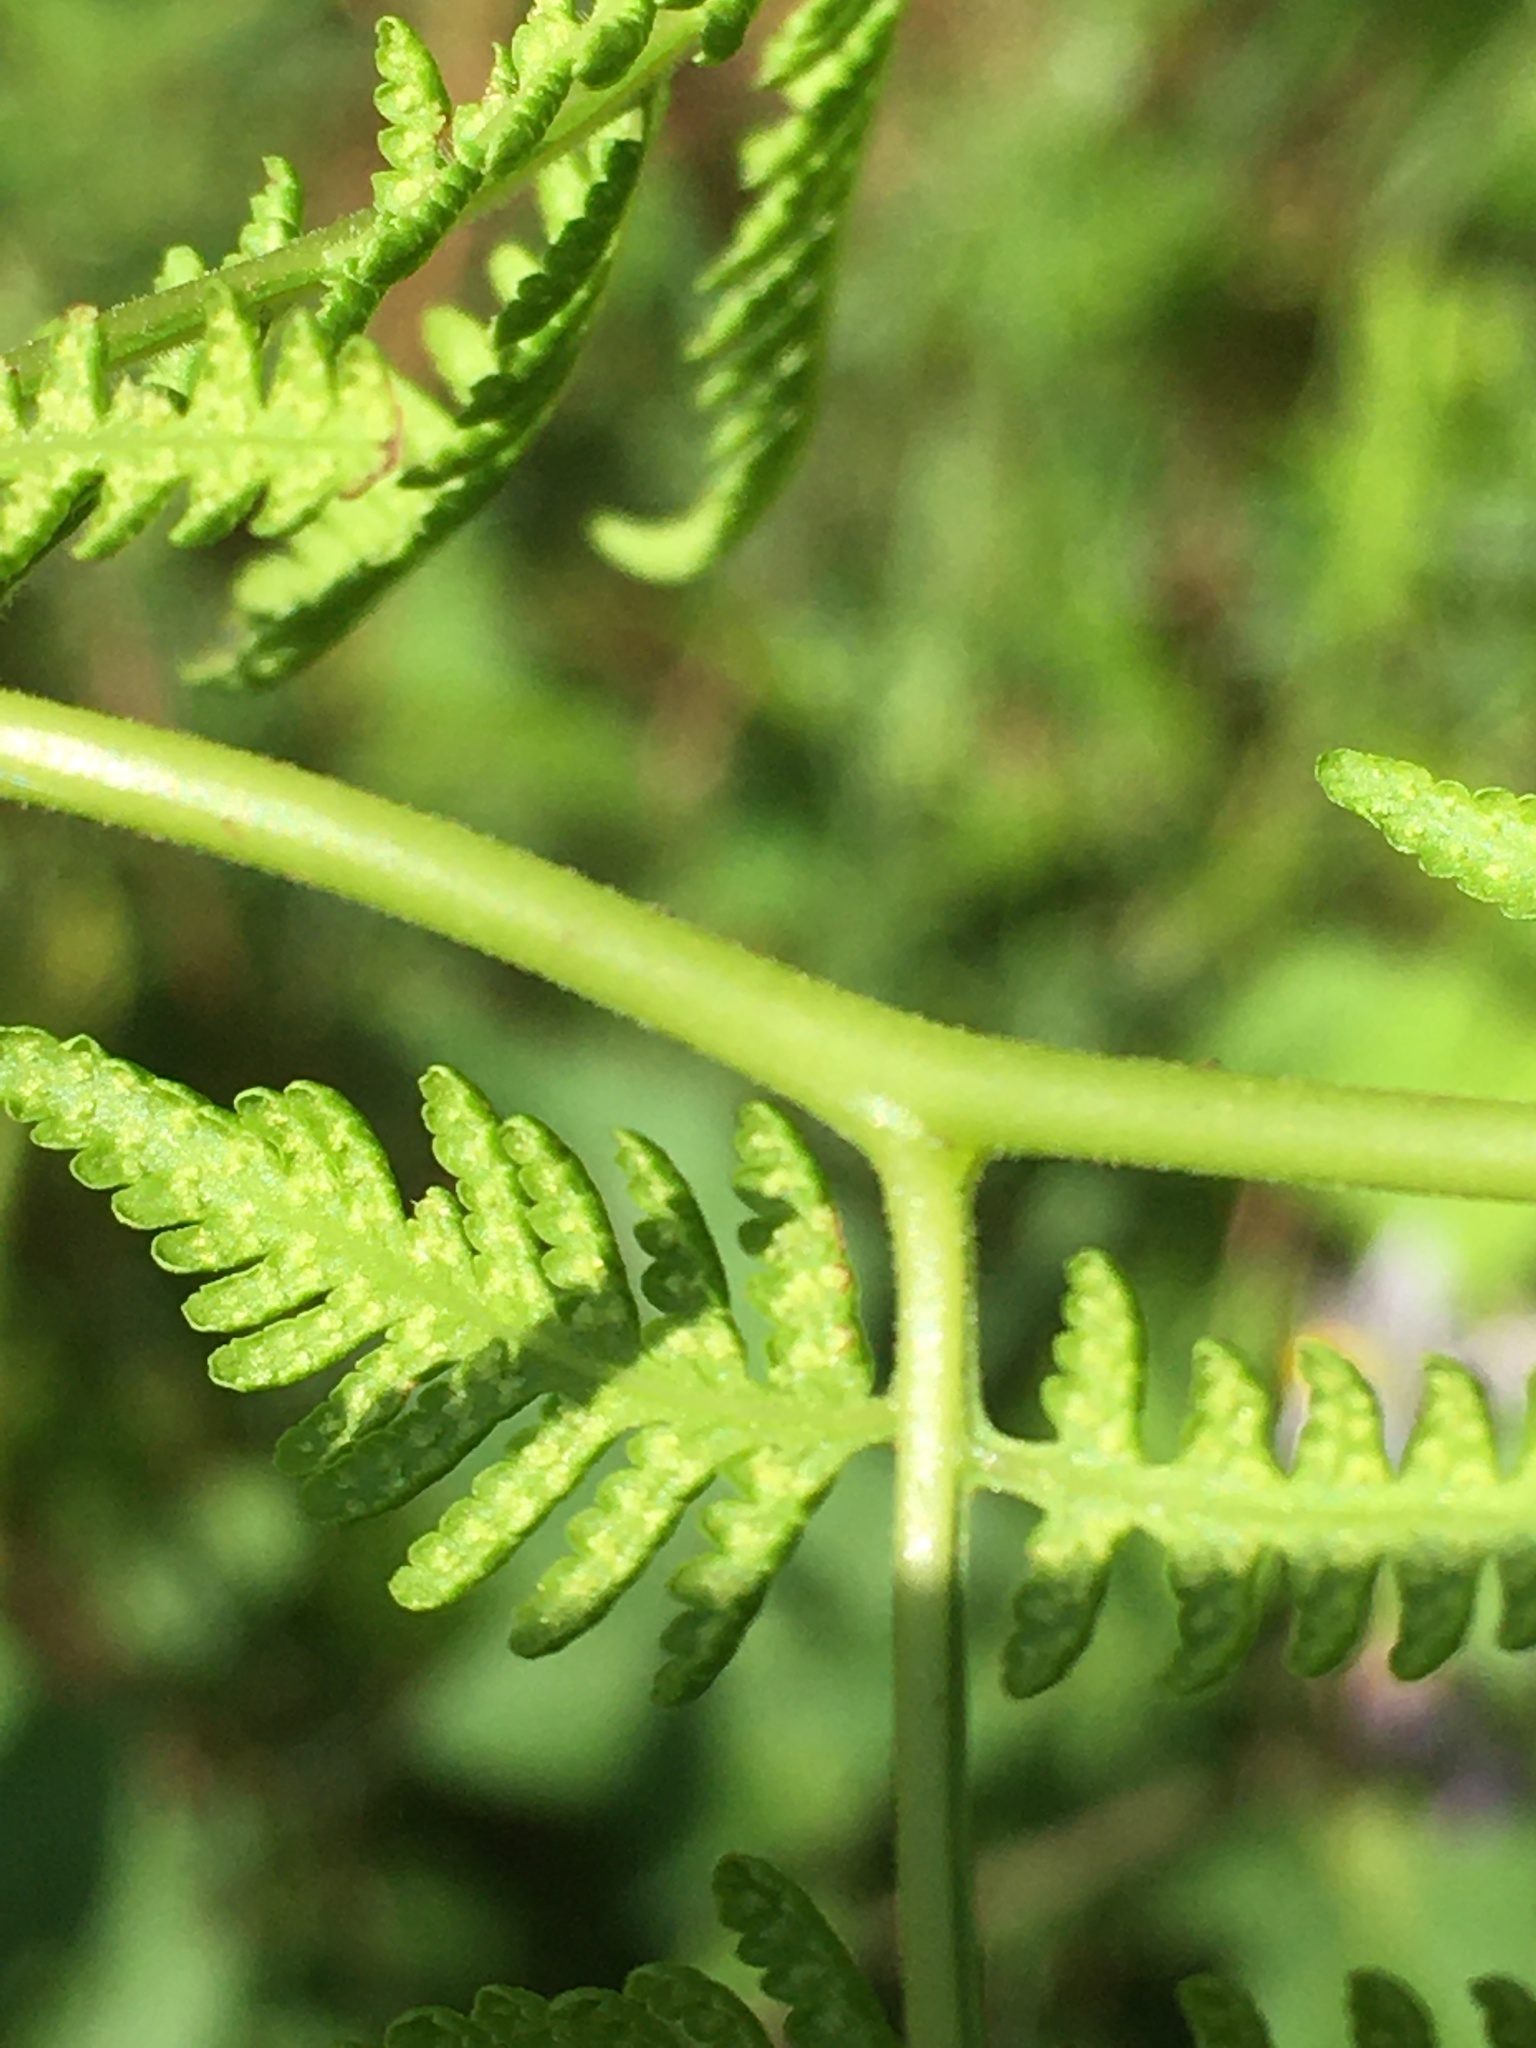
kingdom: Plantae
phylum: Tracheophyta
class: Polypodiopsida
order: Polypodiales
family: Thelypteridaceae
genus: Macrothelypteris
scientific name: Macrothelypteris torresiana
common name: Swordfern
